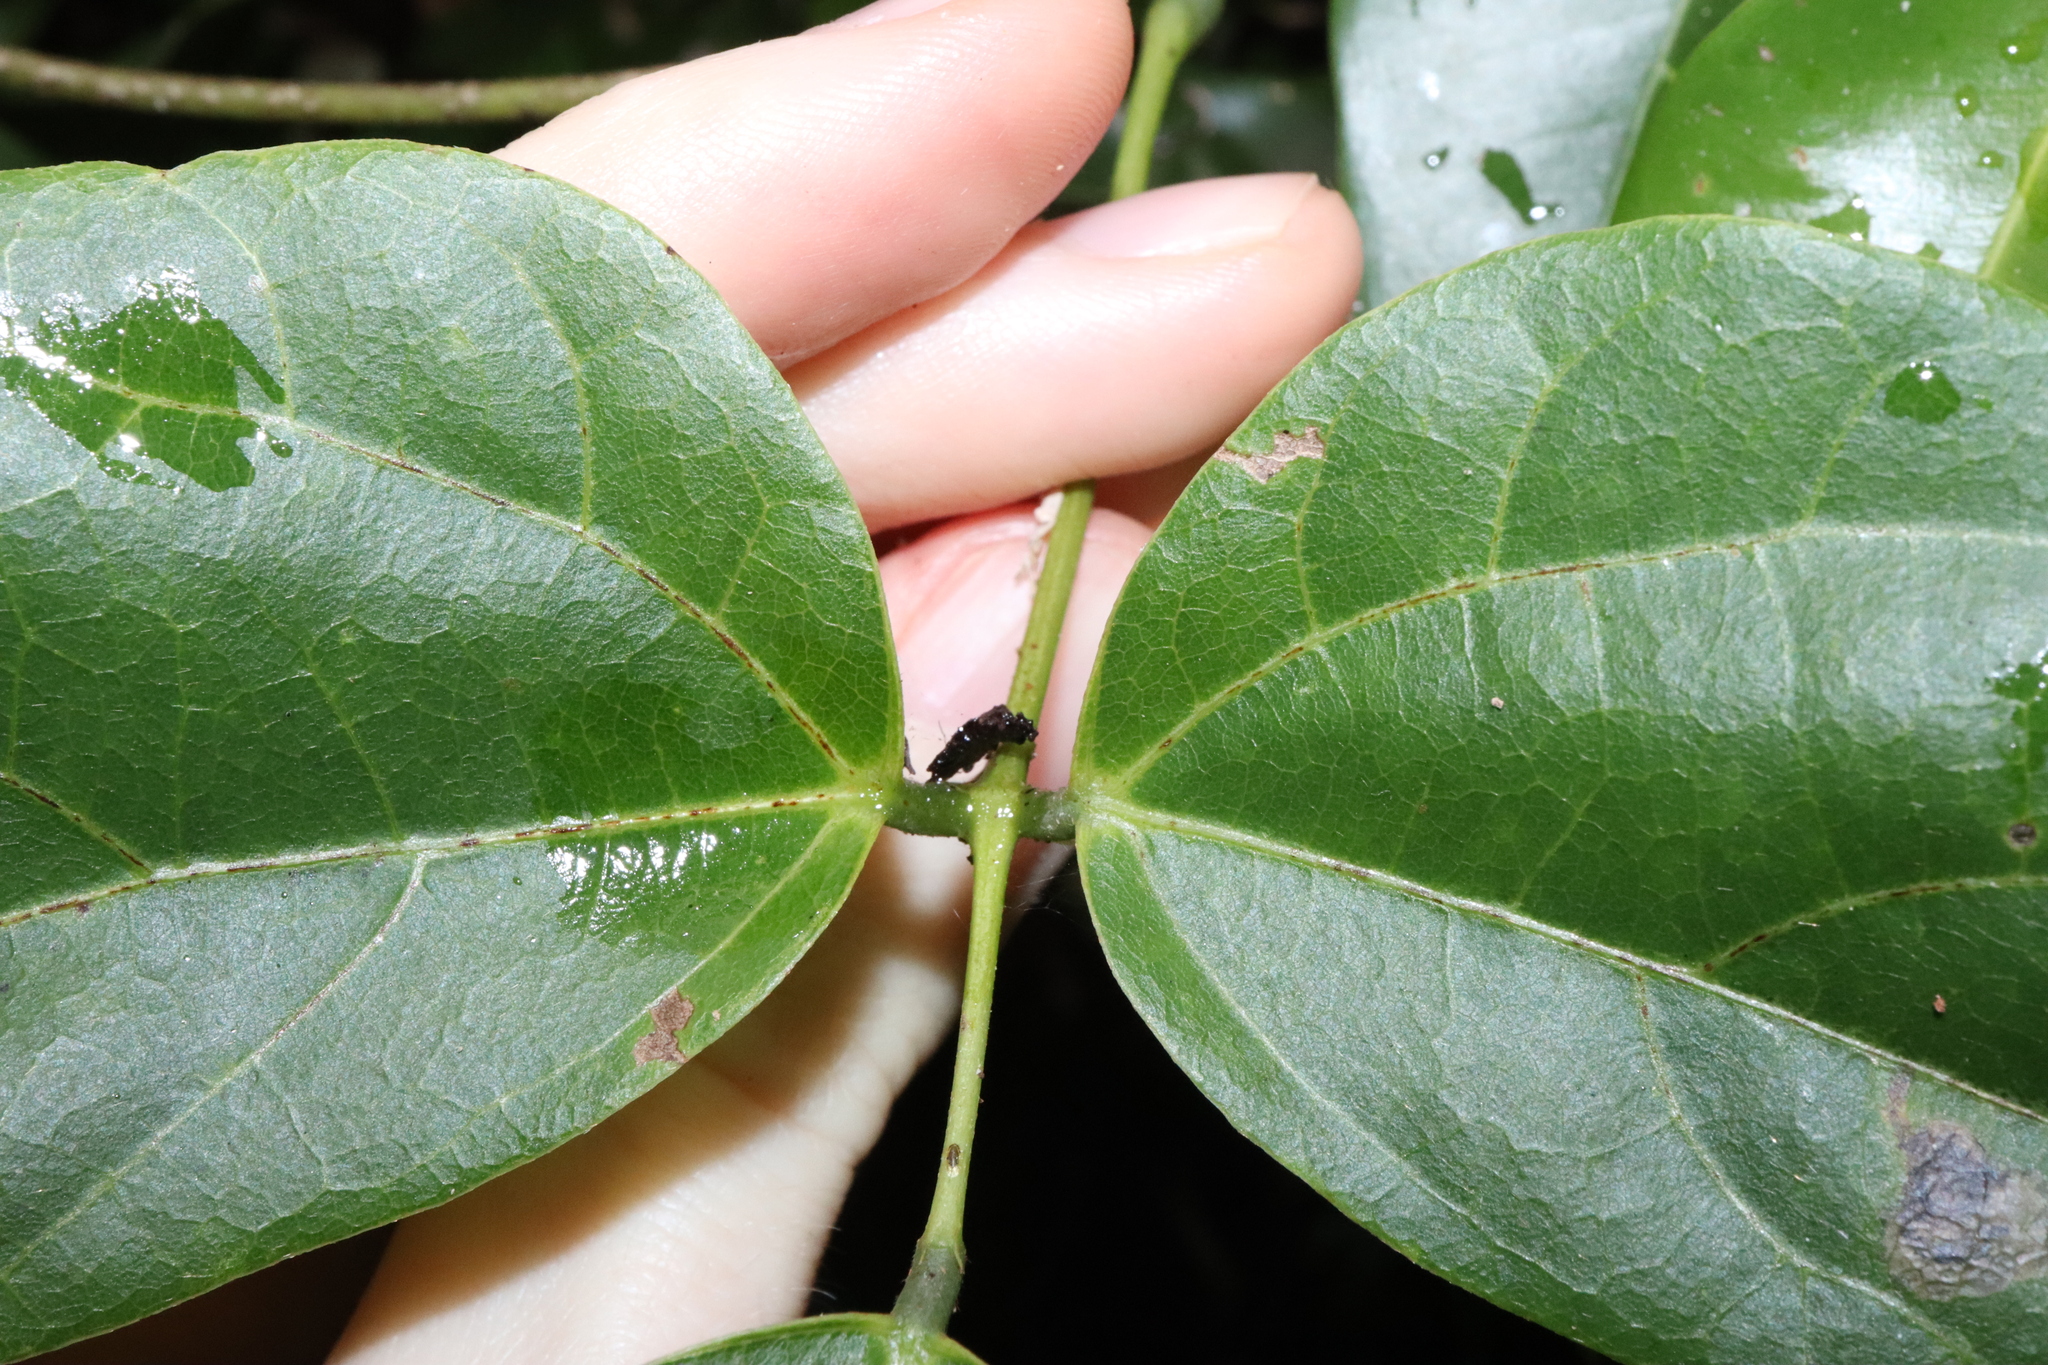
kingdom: Plantae
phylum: Tracheophyta
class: Magnoliopsida
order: Fabales
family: Fabaceae
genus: Mucuna
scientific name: Mucuna gigantea
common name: Black-bean
